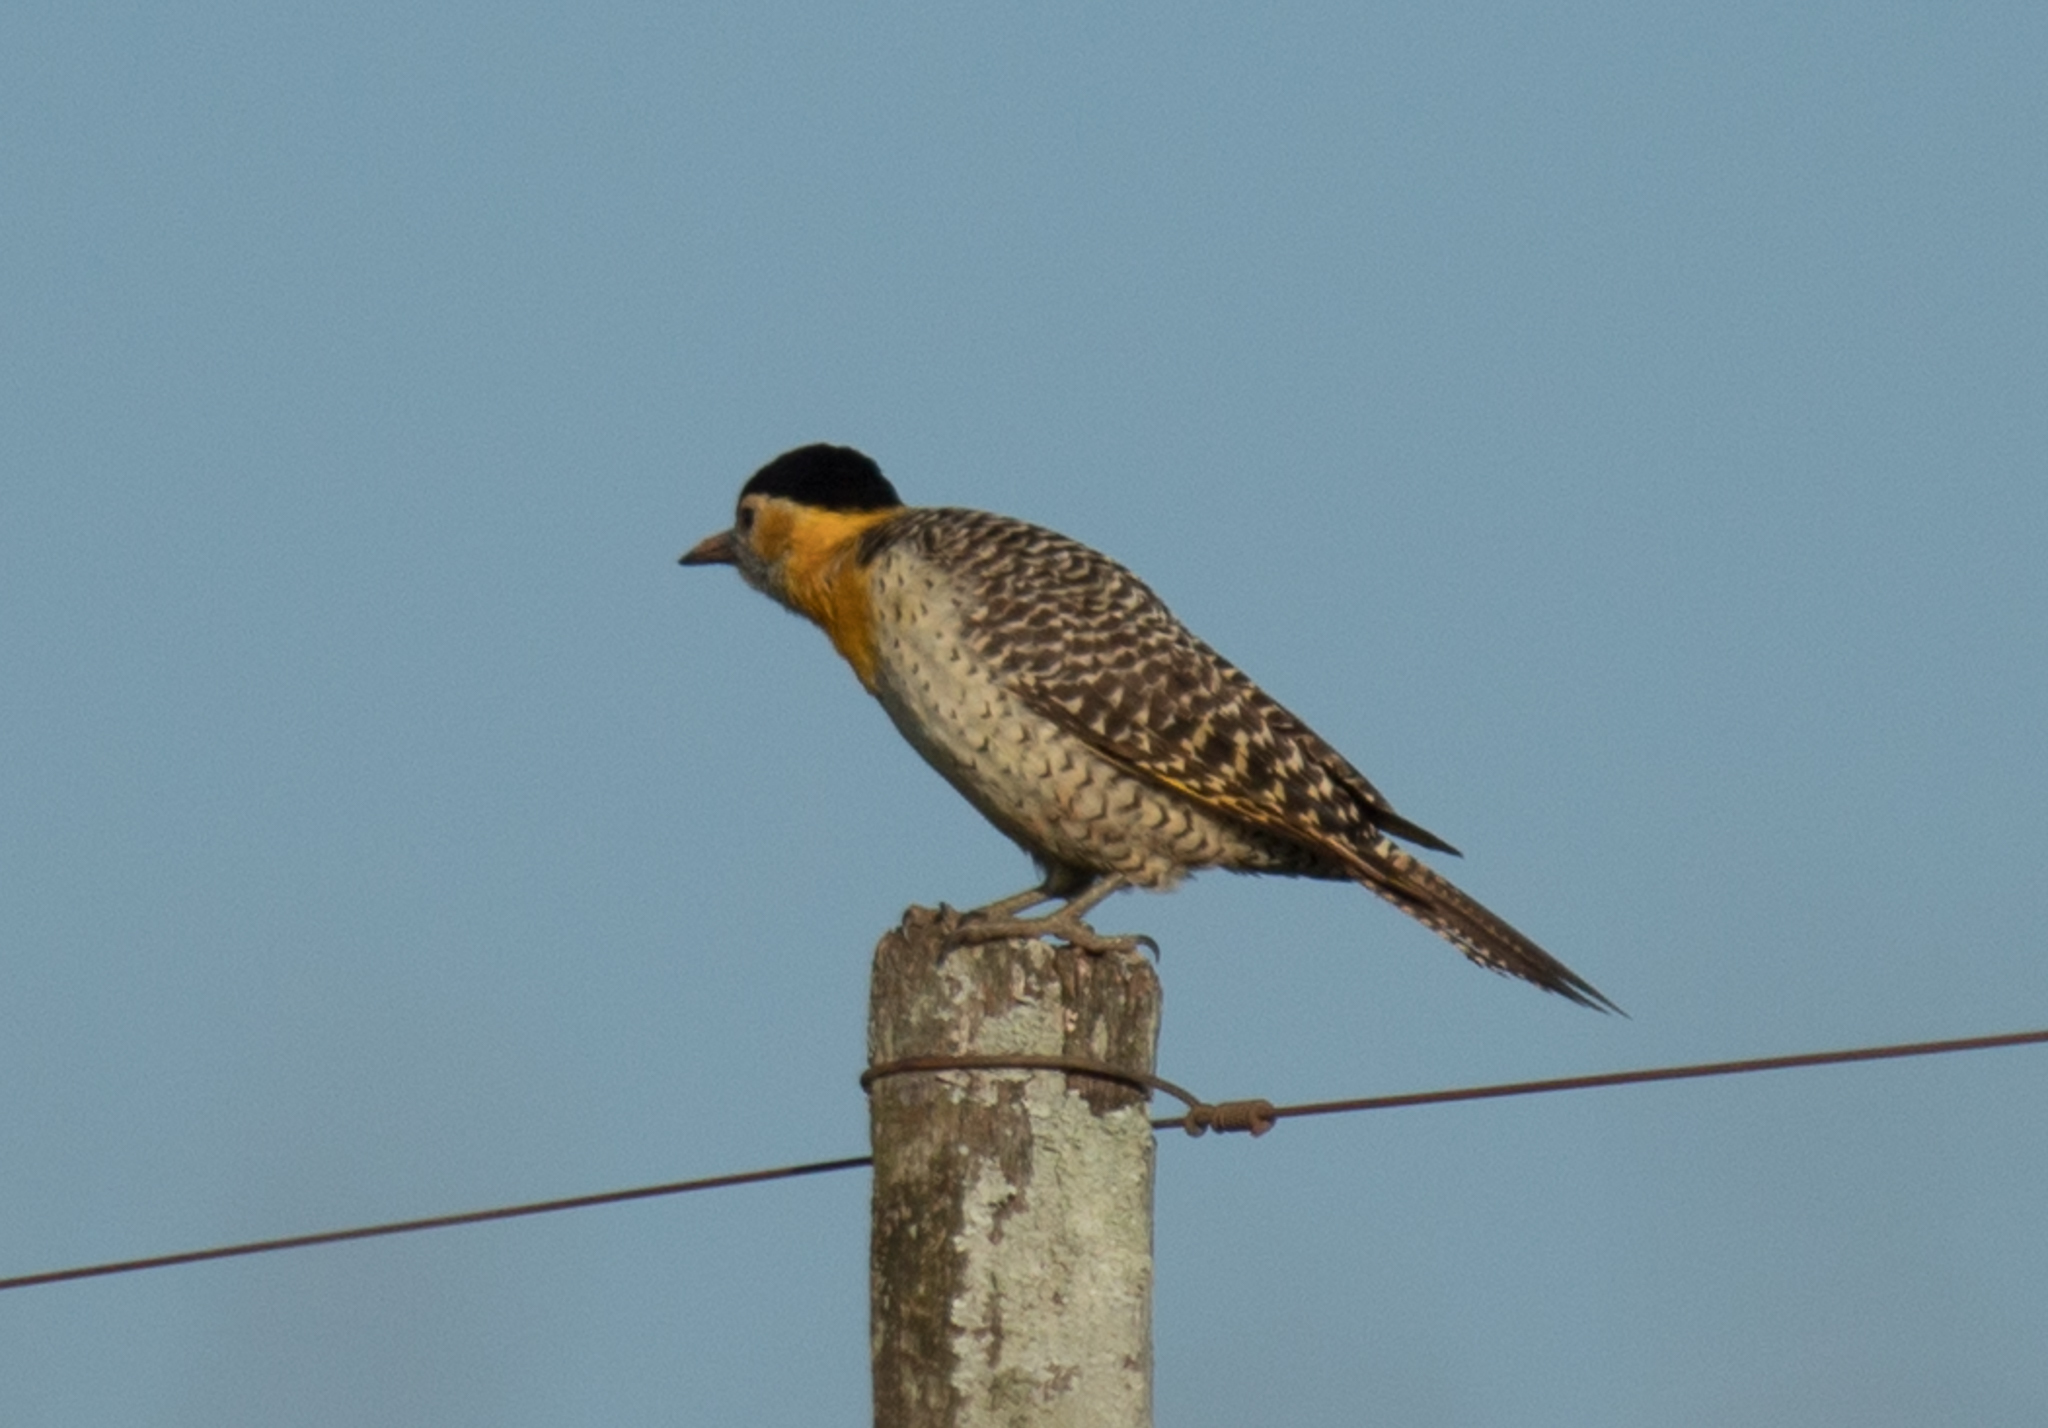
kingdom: Animalia
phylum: Chordata
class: Aves
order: Piciformes
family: Picidae
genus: Colaptes
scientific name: Colaptes campestris
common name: Campo flicker
